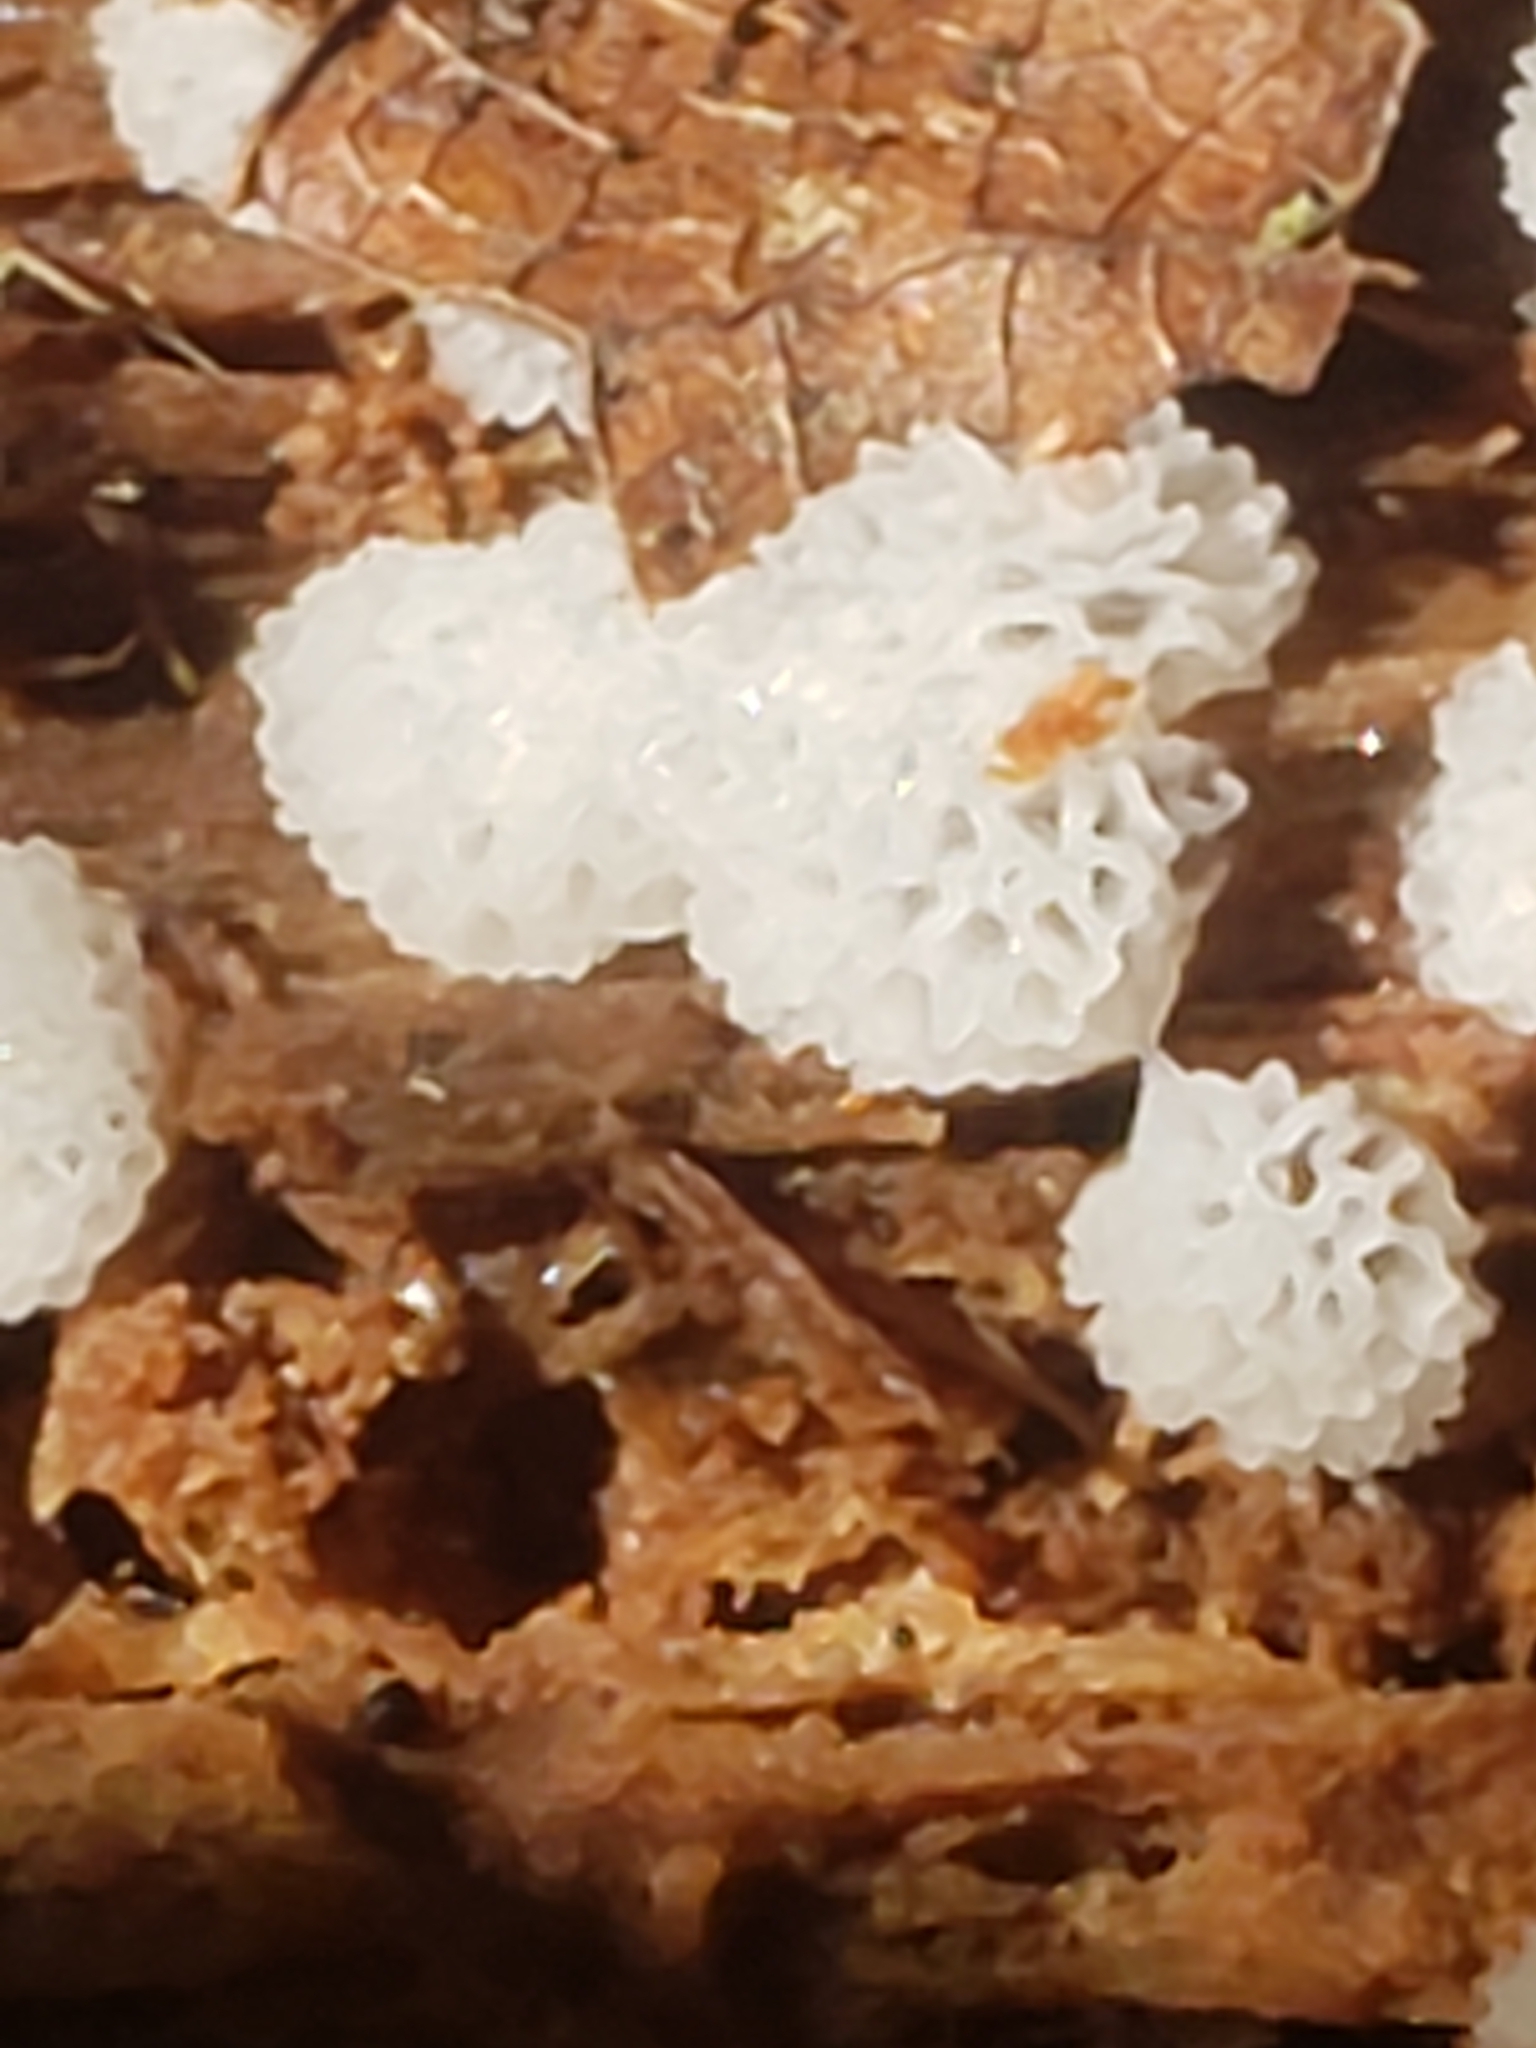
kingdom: Protozoa
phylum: Mycetozoa
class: Protosteliomycetes
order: Ceratiomyxales
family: Ceratiomyxaceae
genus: Ceratiomyxa
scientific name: Ceratiomyxa fruticulosa
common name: Honeycomb coral slime mold
